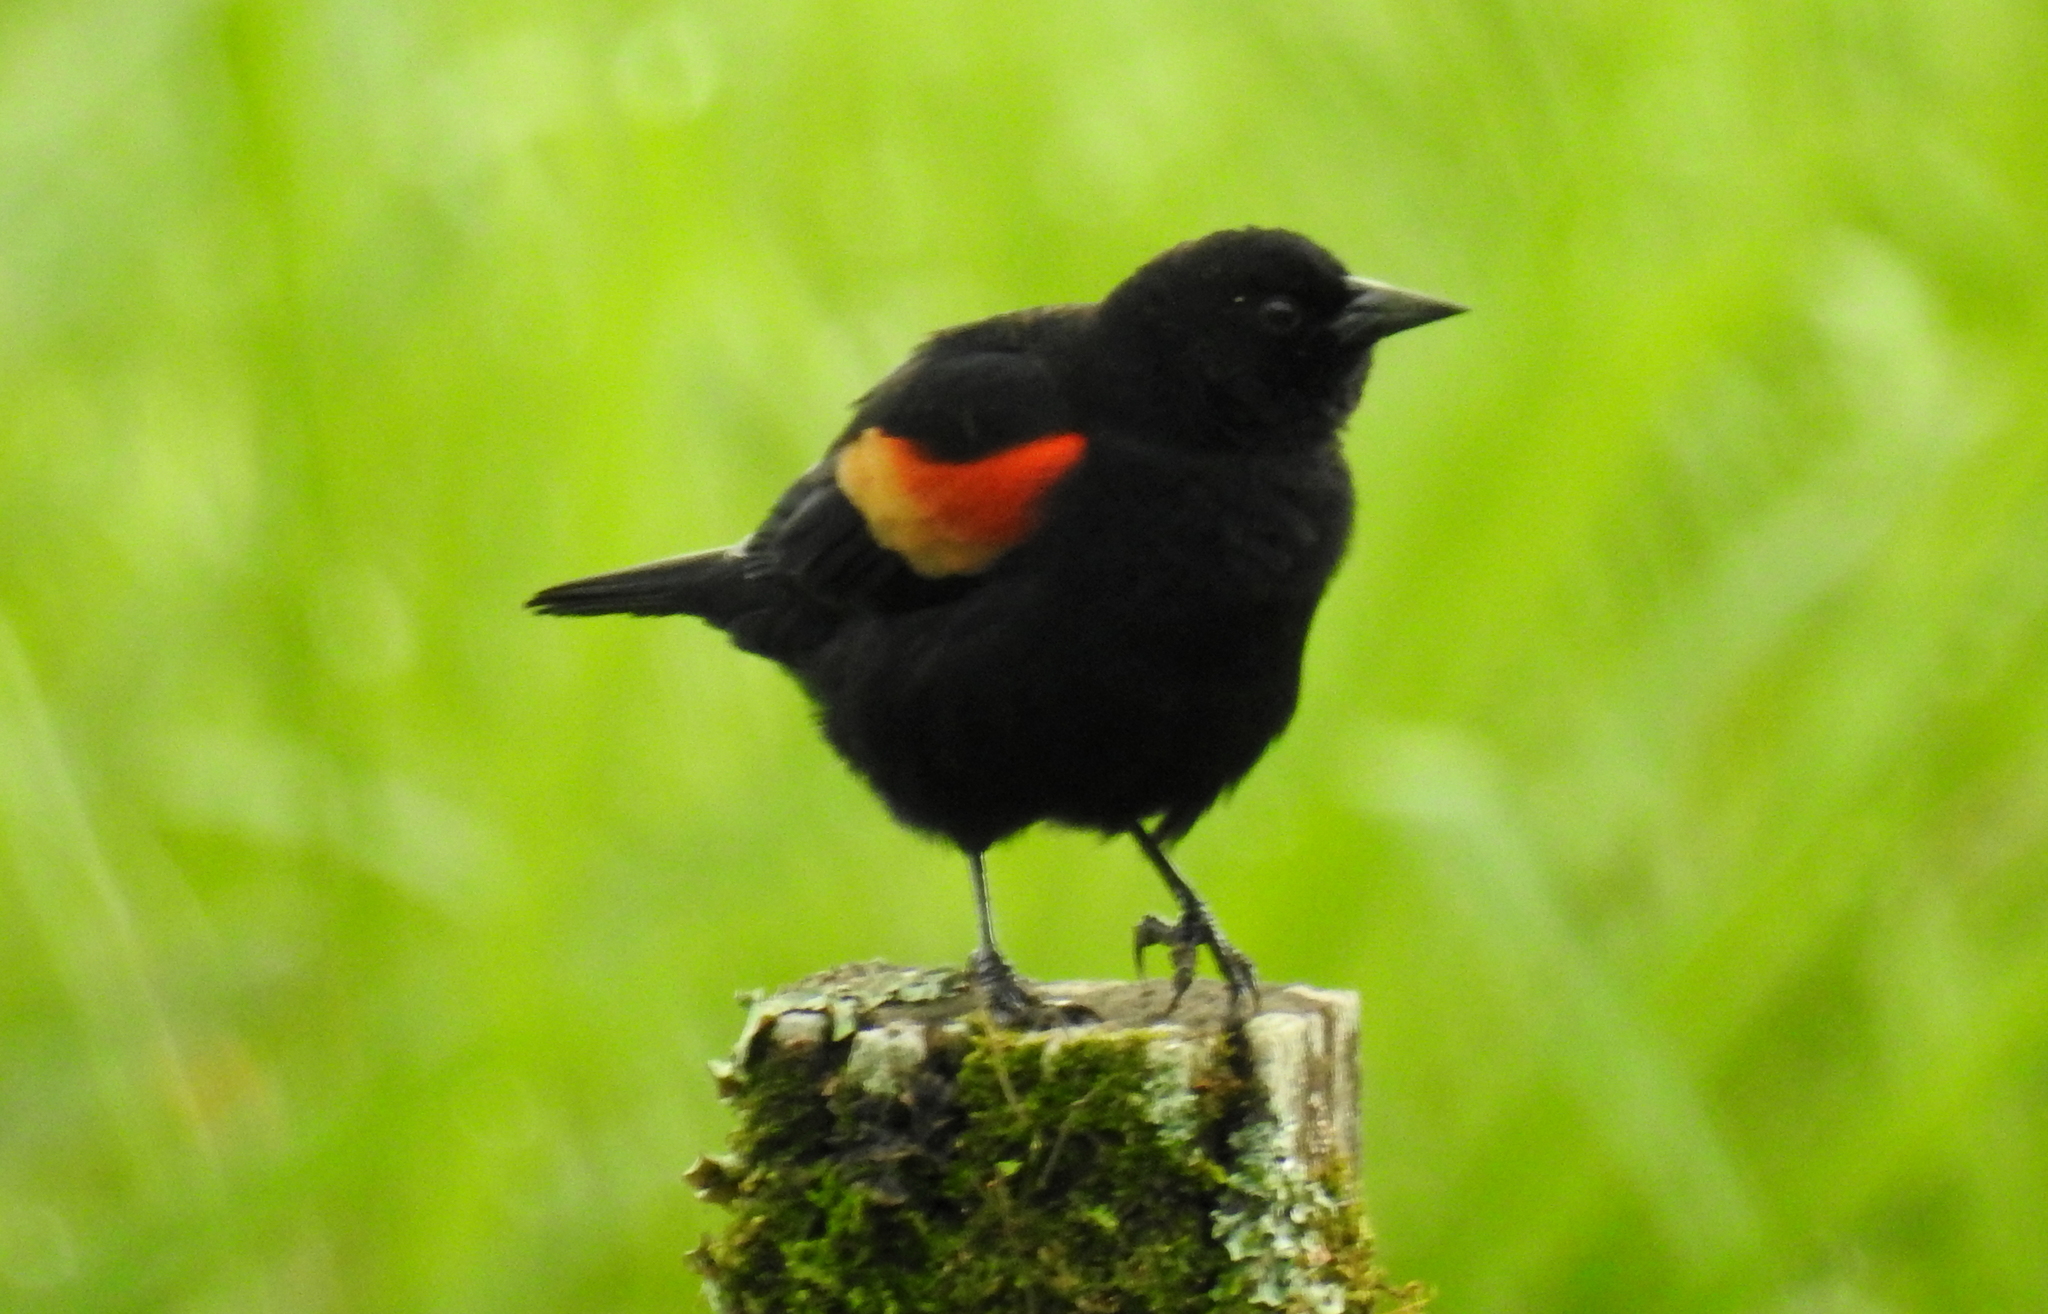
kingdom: Animalia
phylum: Chordata
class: Aves
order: Passeriformes
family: Icteridae
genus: Agelaius
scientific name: Agelaius phoeniceus
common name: Red-winged blackbird
